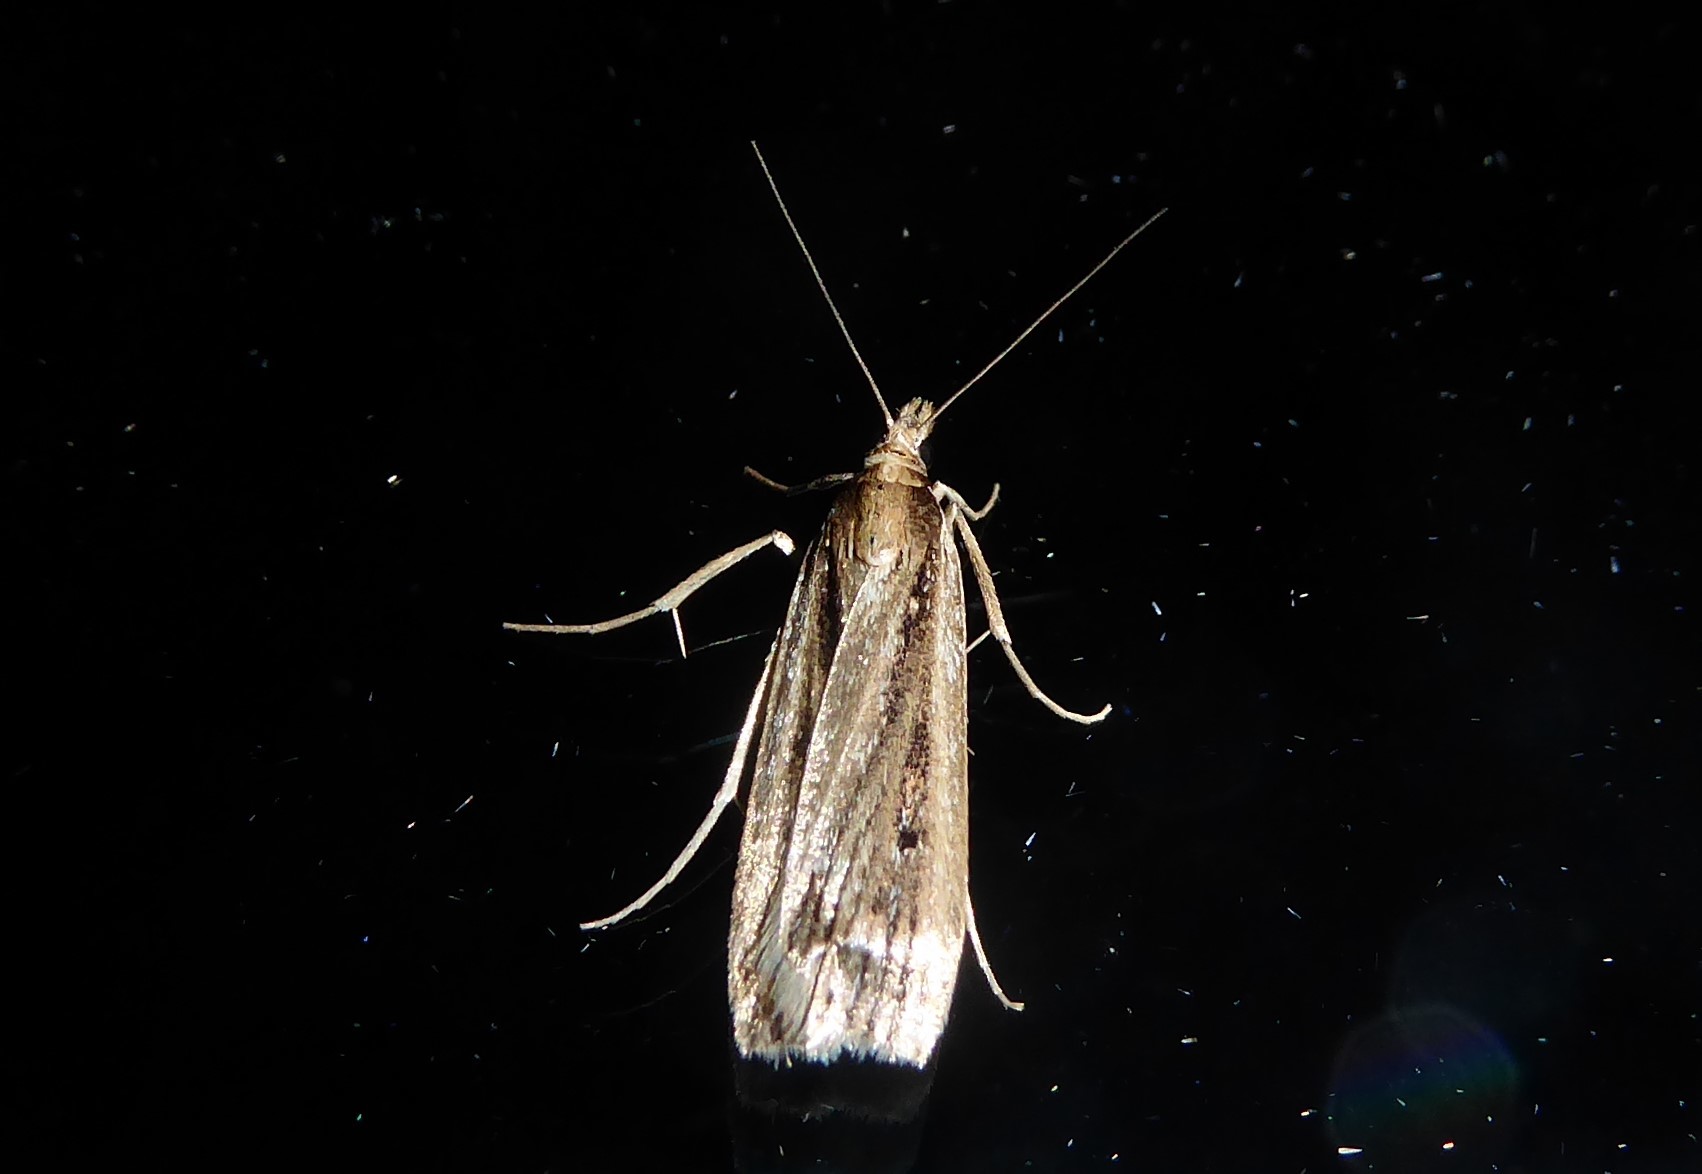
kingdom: Animalia
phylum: Arthropoda
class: Insecta
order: Lepidoptera
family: Crambidae
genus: Eudonia
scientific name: Eudonia sabulosella
